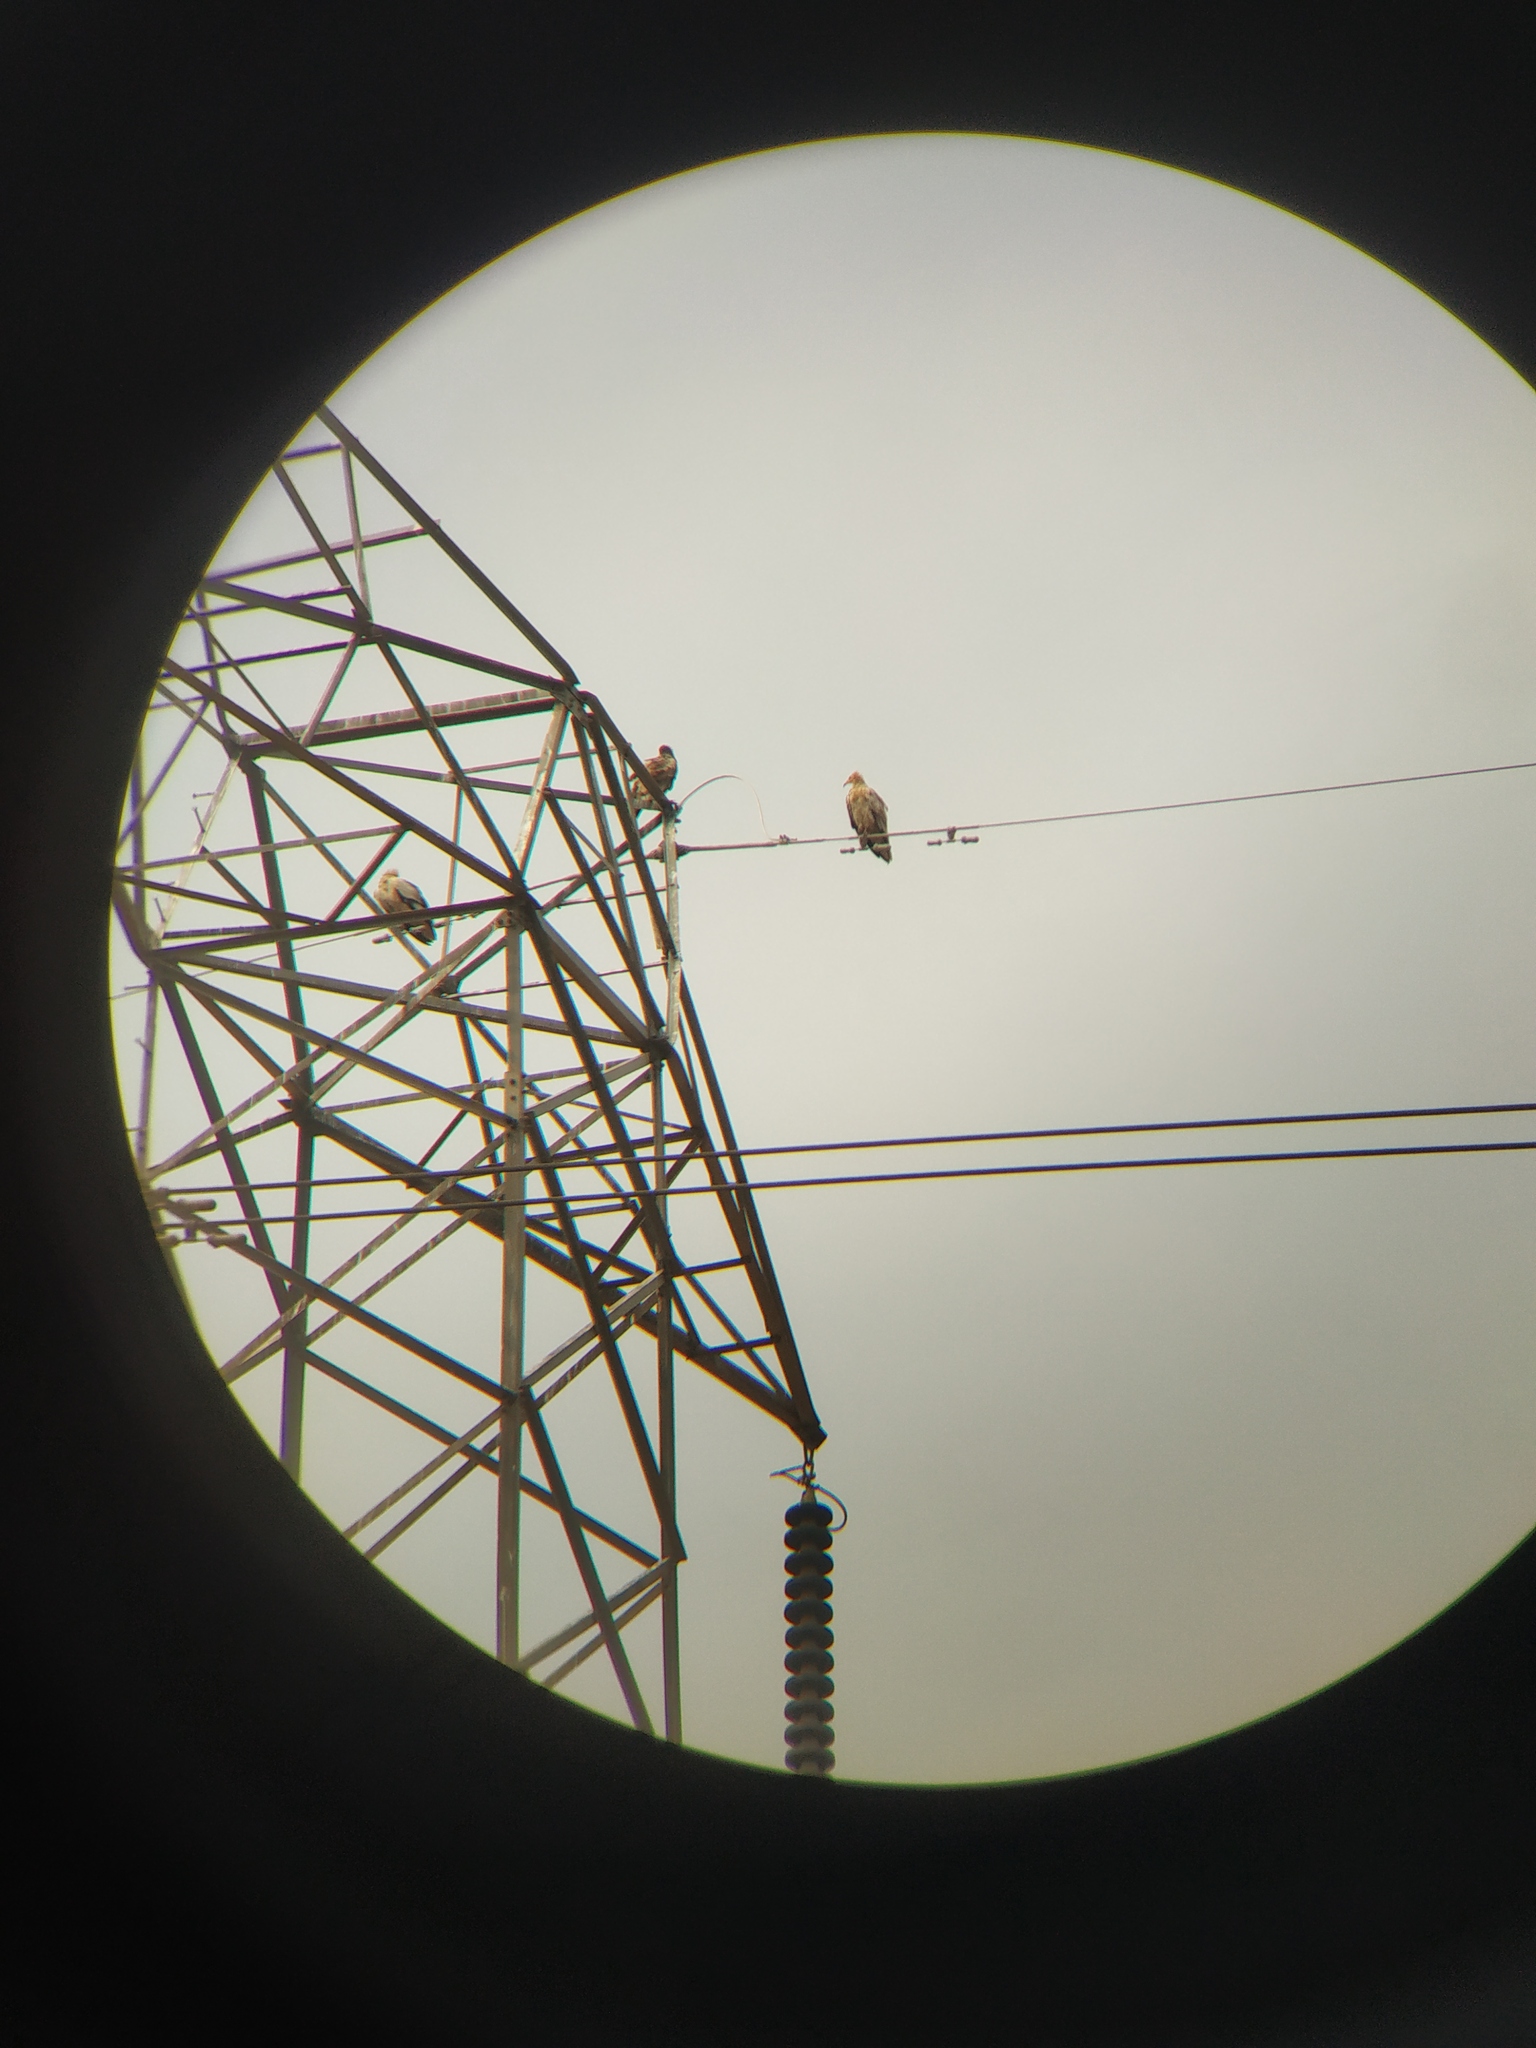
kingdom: Animalia
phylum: Chordata
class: Aves
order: Accipitriformes
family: Accipitridae
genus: Neophron
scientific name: Neophron percnopterus
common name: Egyptian vulture
